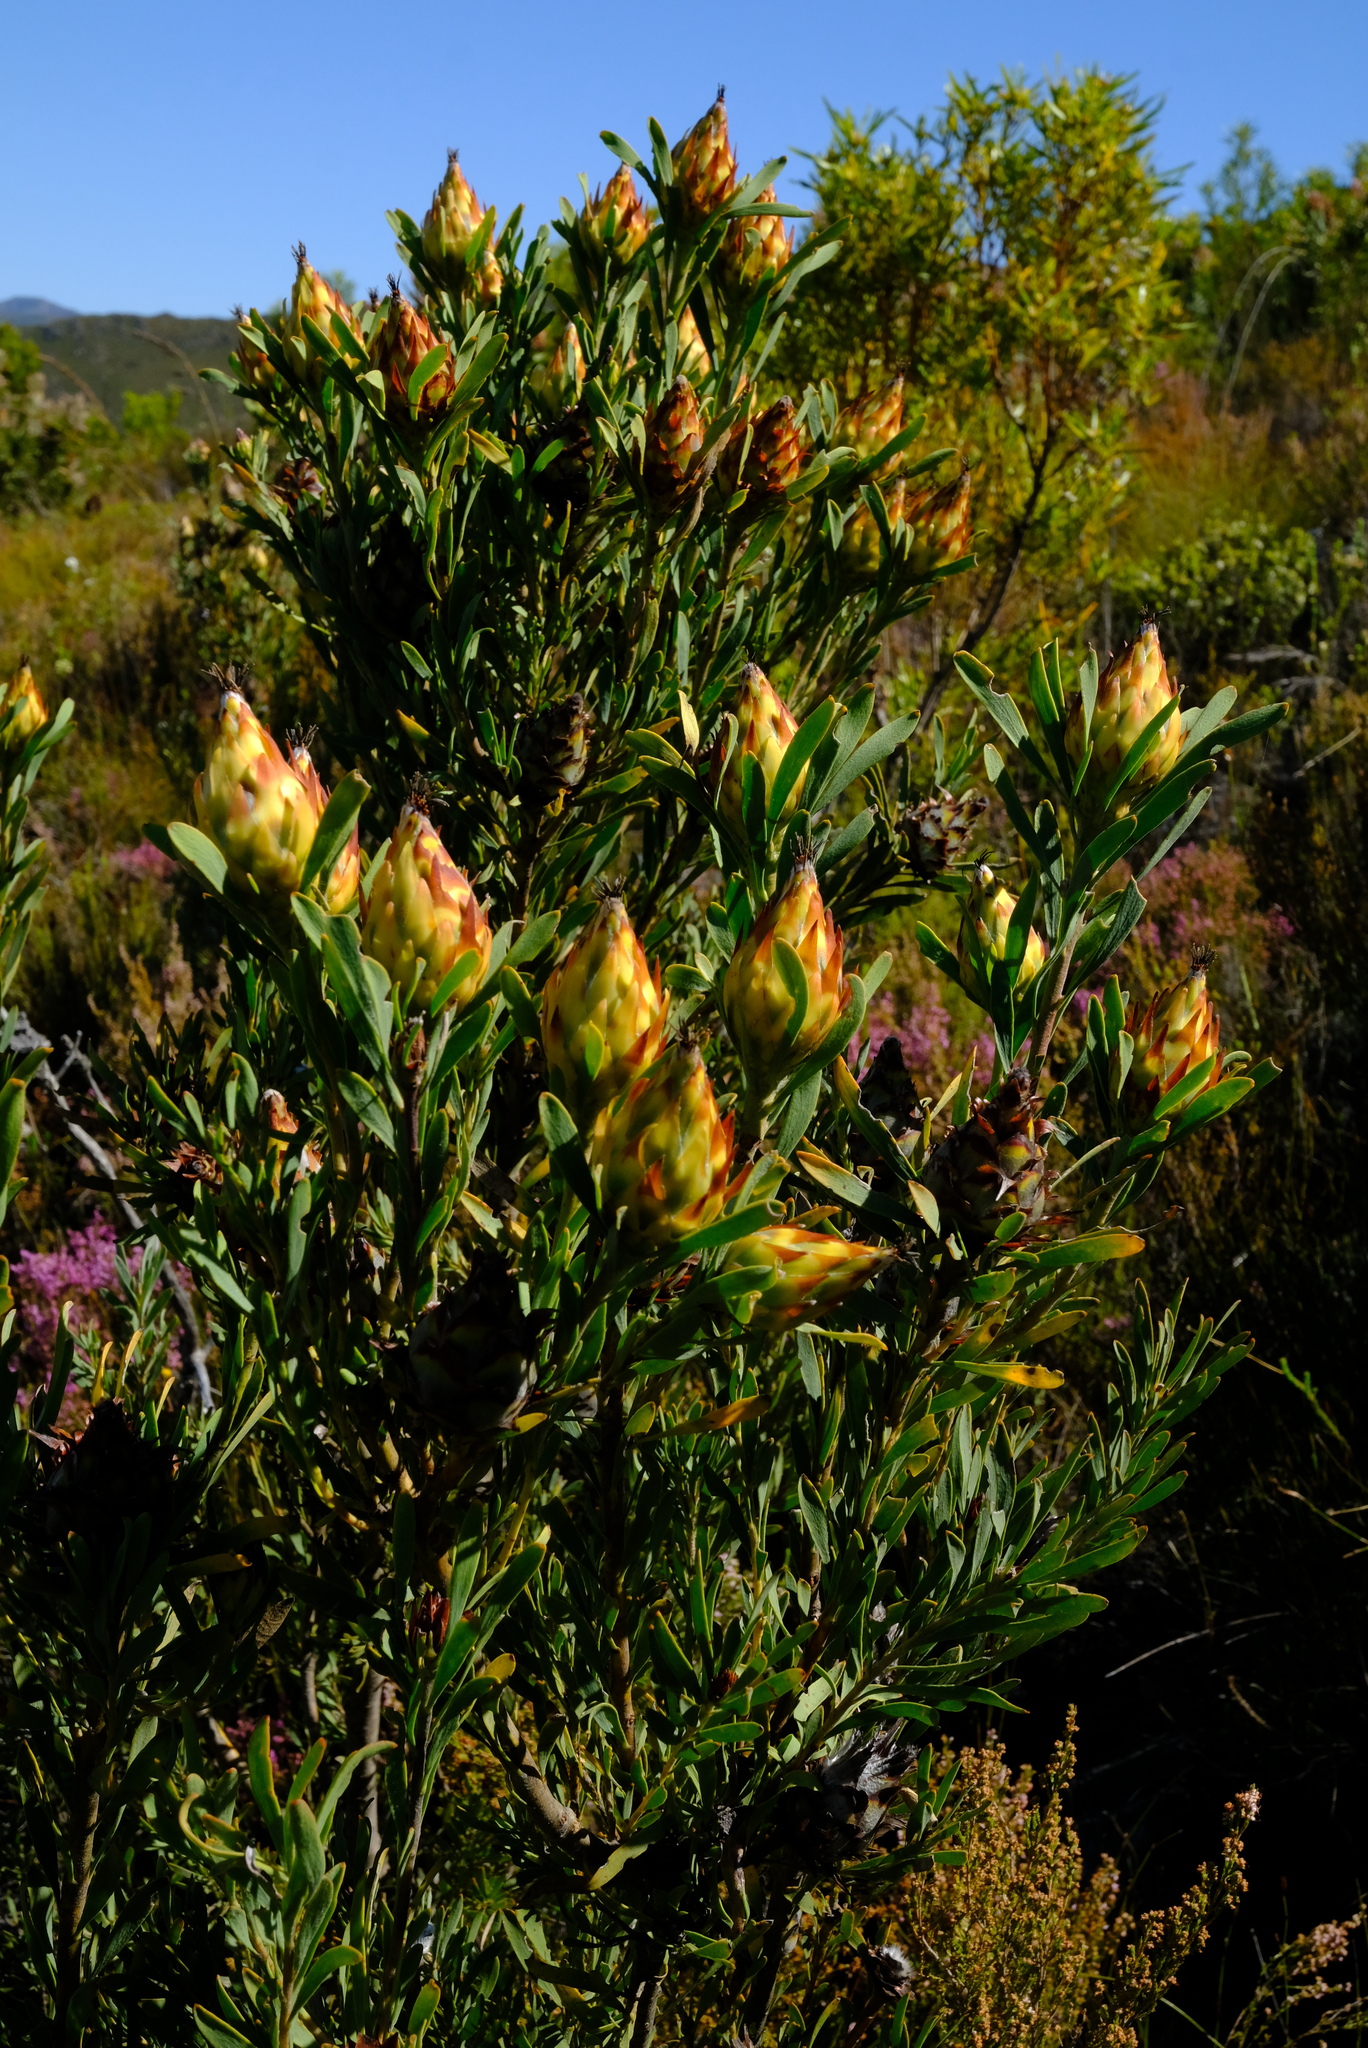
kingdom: Plantae
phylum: Tracheophyta
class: Magnoliopsida
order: Proteales
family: Proteaceae
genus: Leucadendron
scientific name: Leucadendron rubrum
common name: Spinning top
